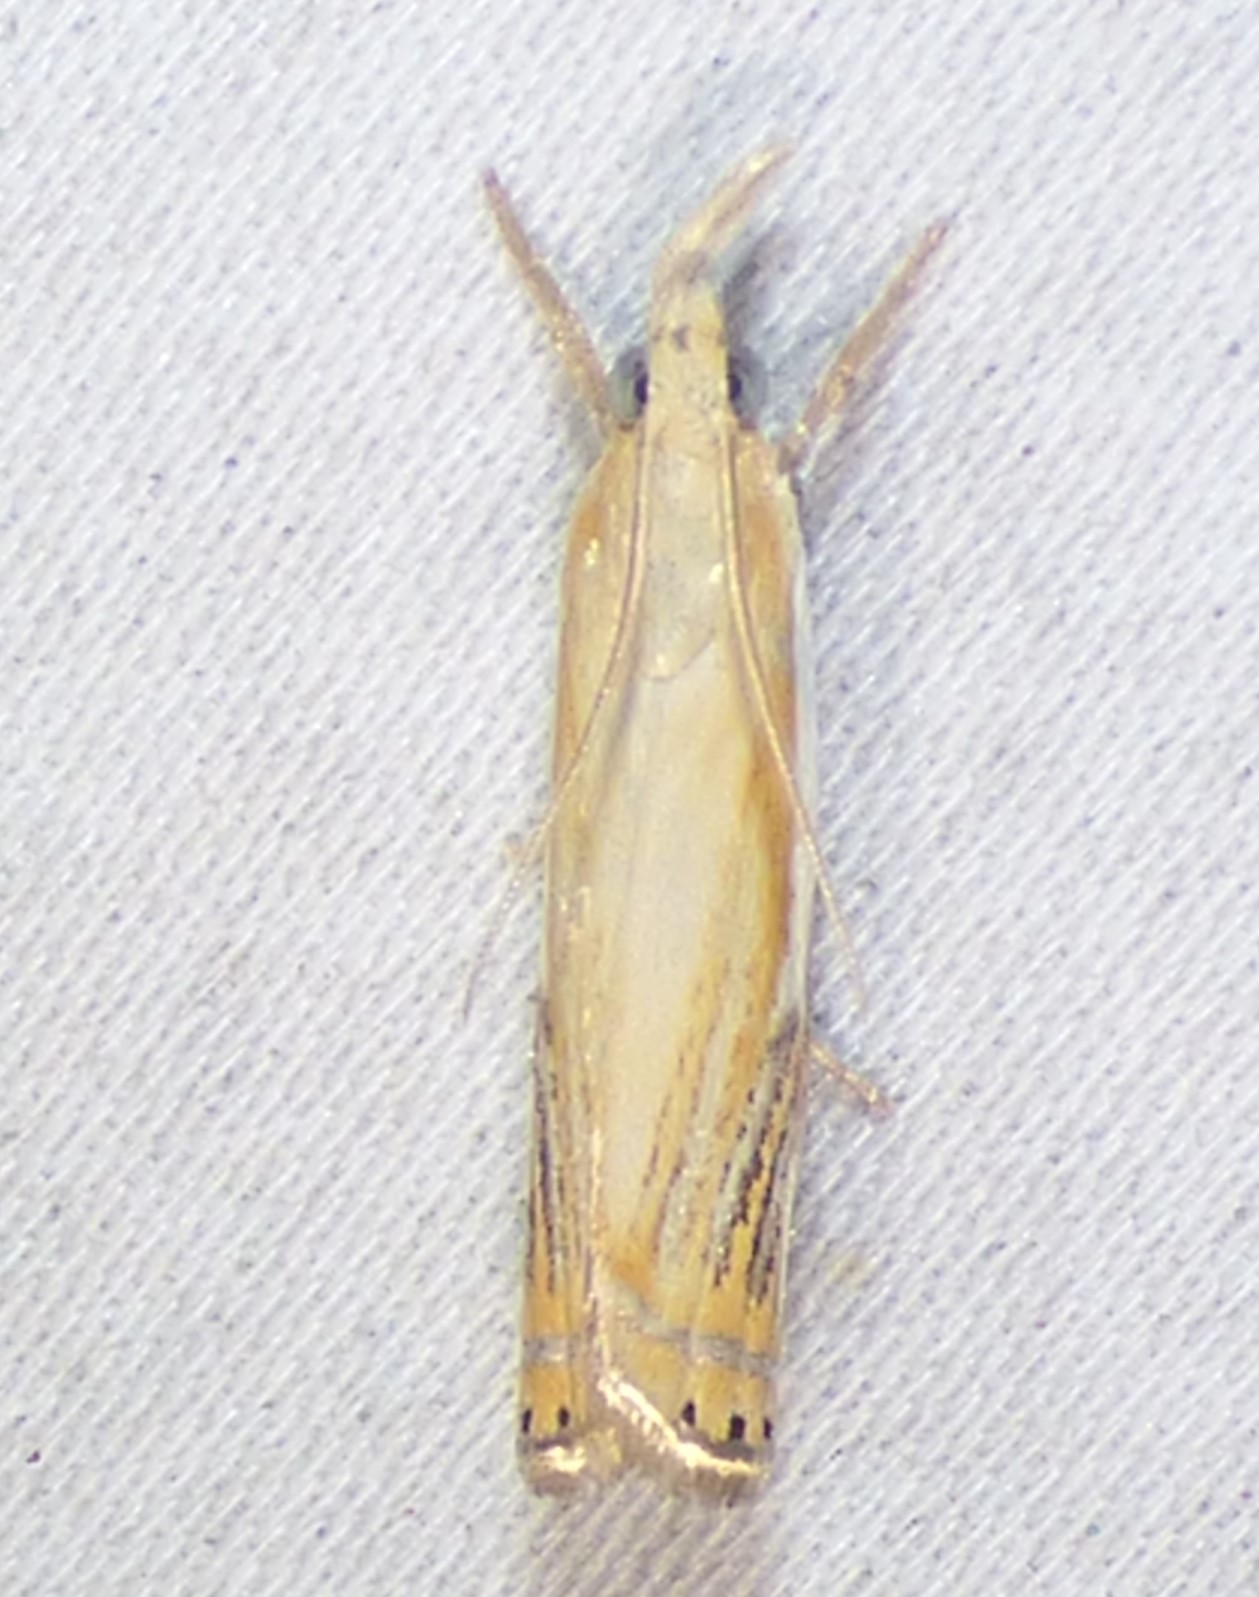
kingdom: Animalia
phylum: Arthropoda
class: Insecta
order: Lepidoptera
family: Crambidae
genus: Crambus
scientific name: Crambus agitatellus
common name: Double-banded grass-veneer
